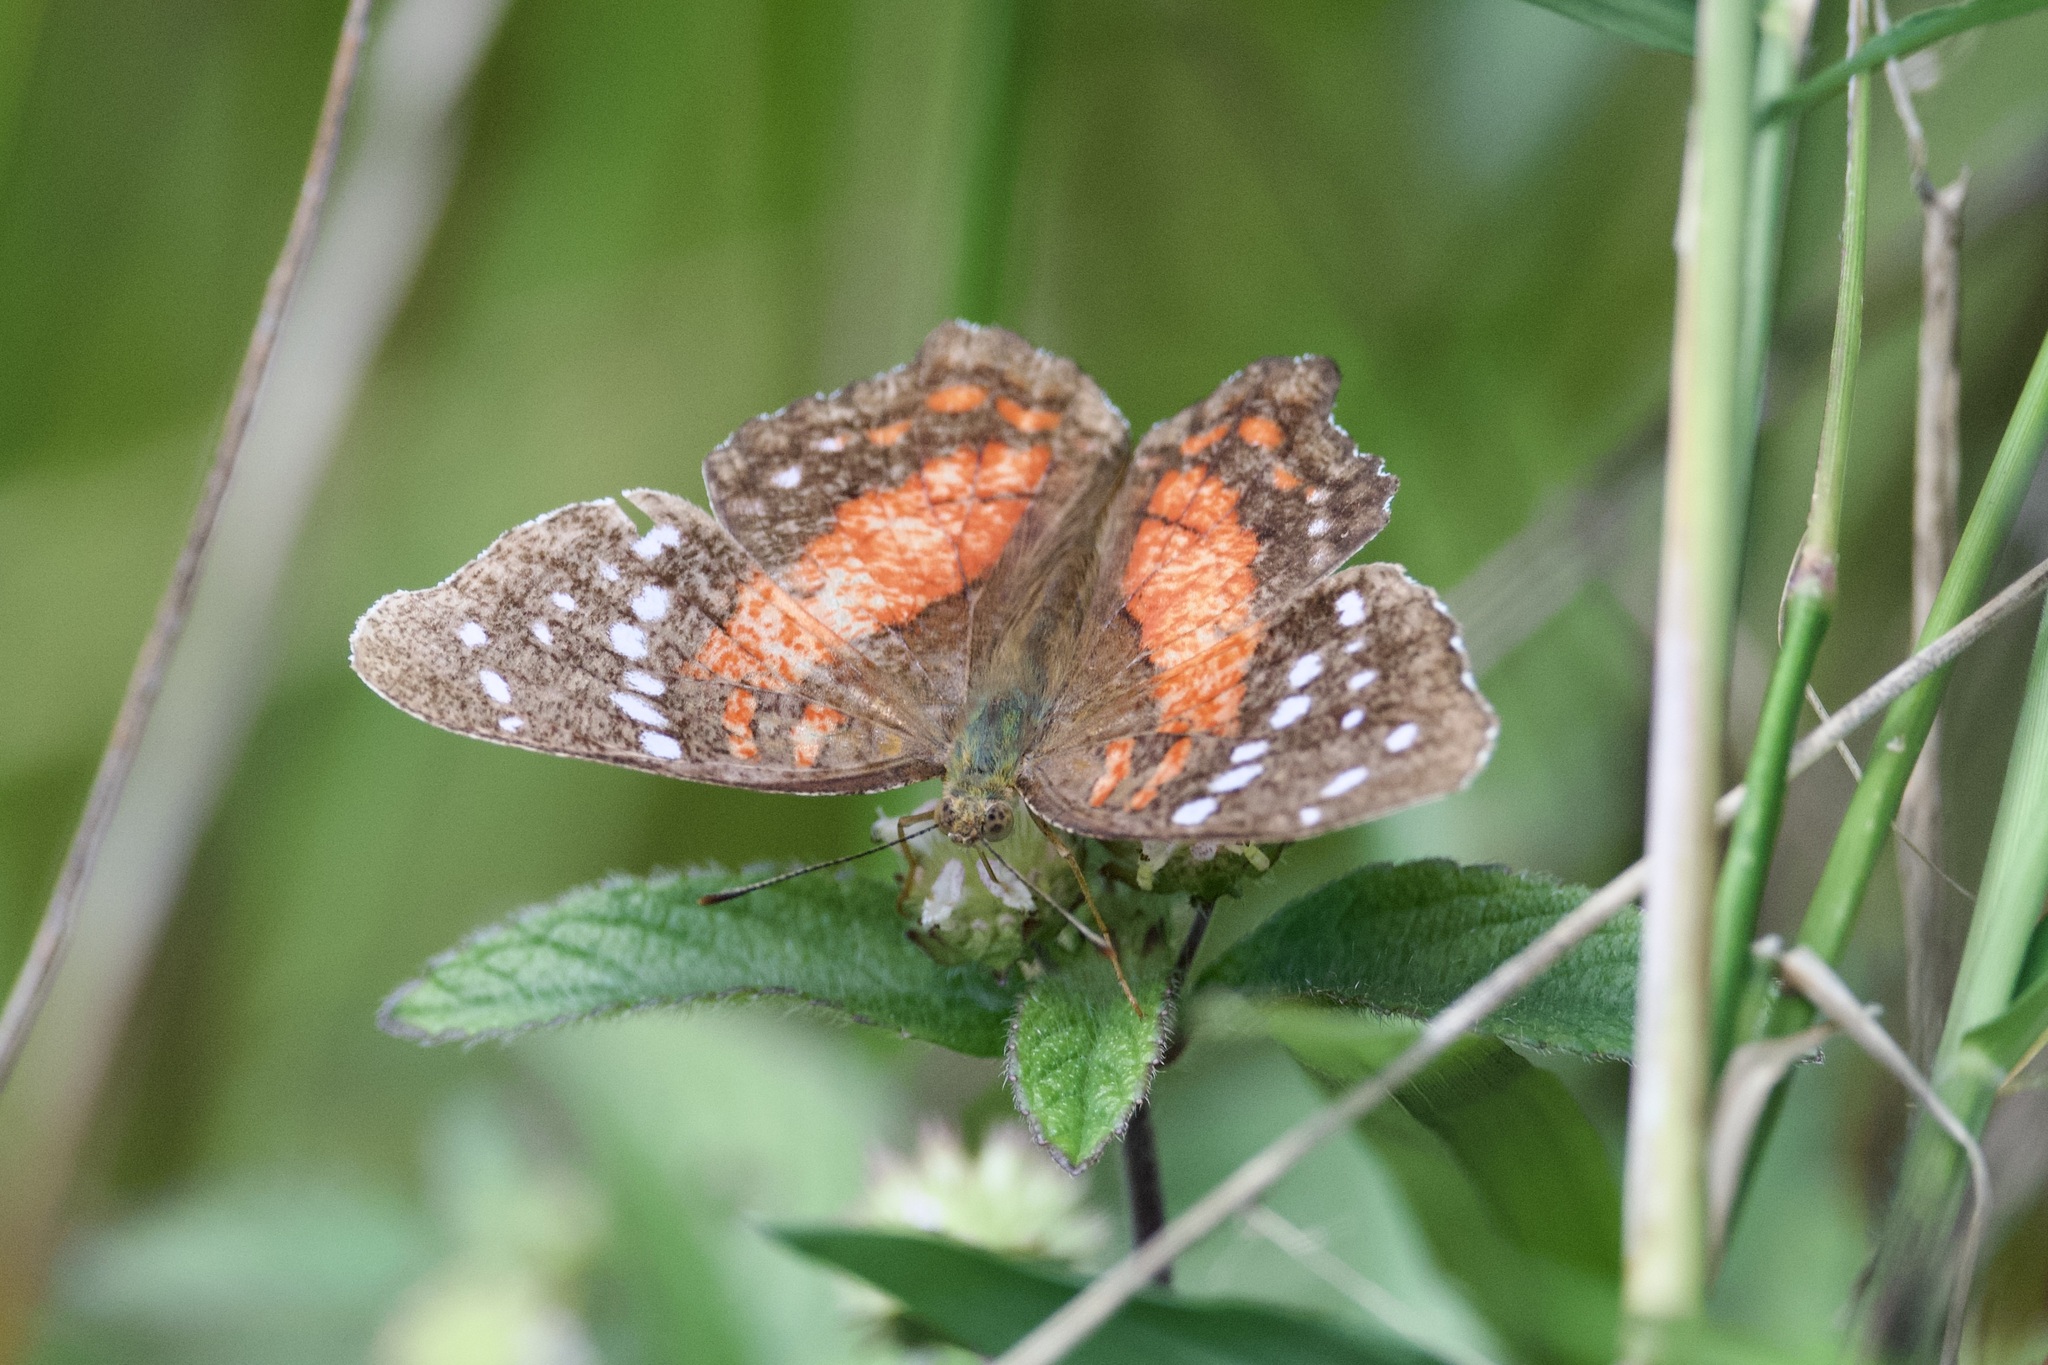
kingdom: Animalia
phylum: Arthropoda
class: Insecta
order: Lepidoptera
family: Nymphalidae
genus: Anartia
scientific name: Anartia amathea
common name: Red peacock
